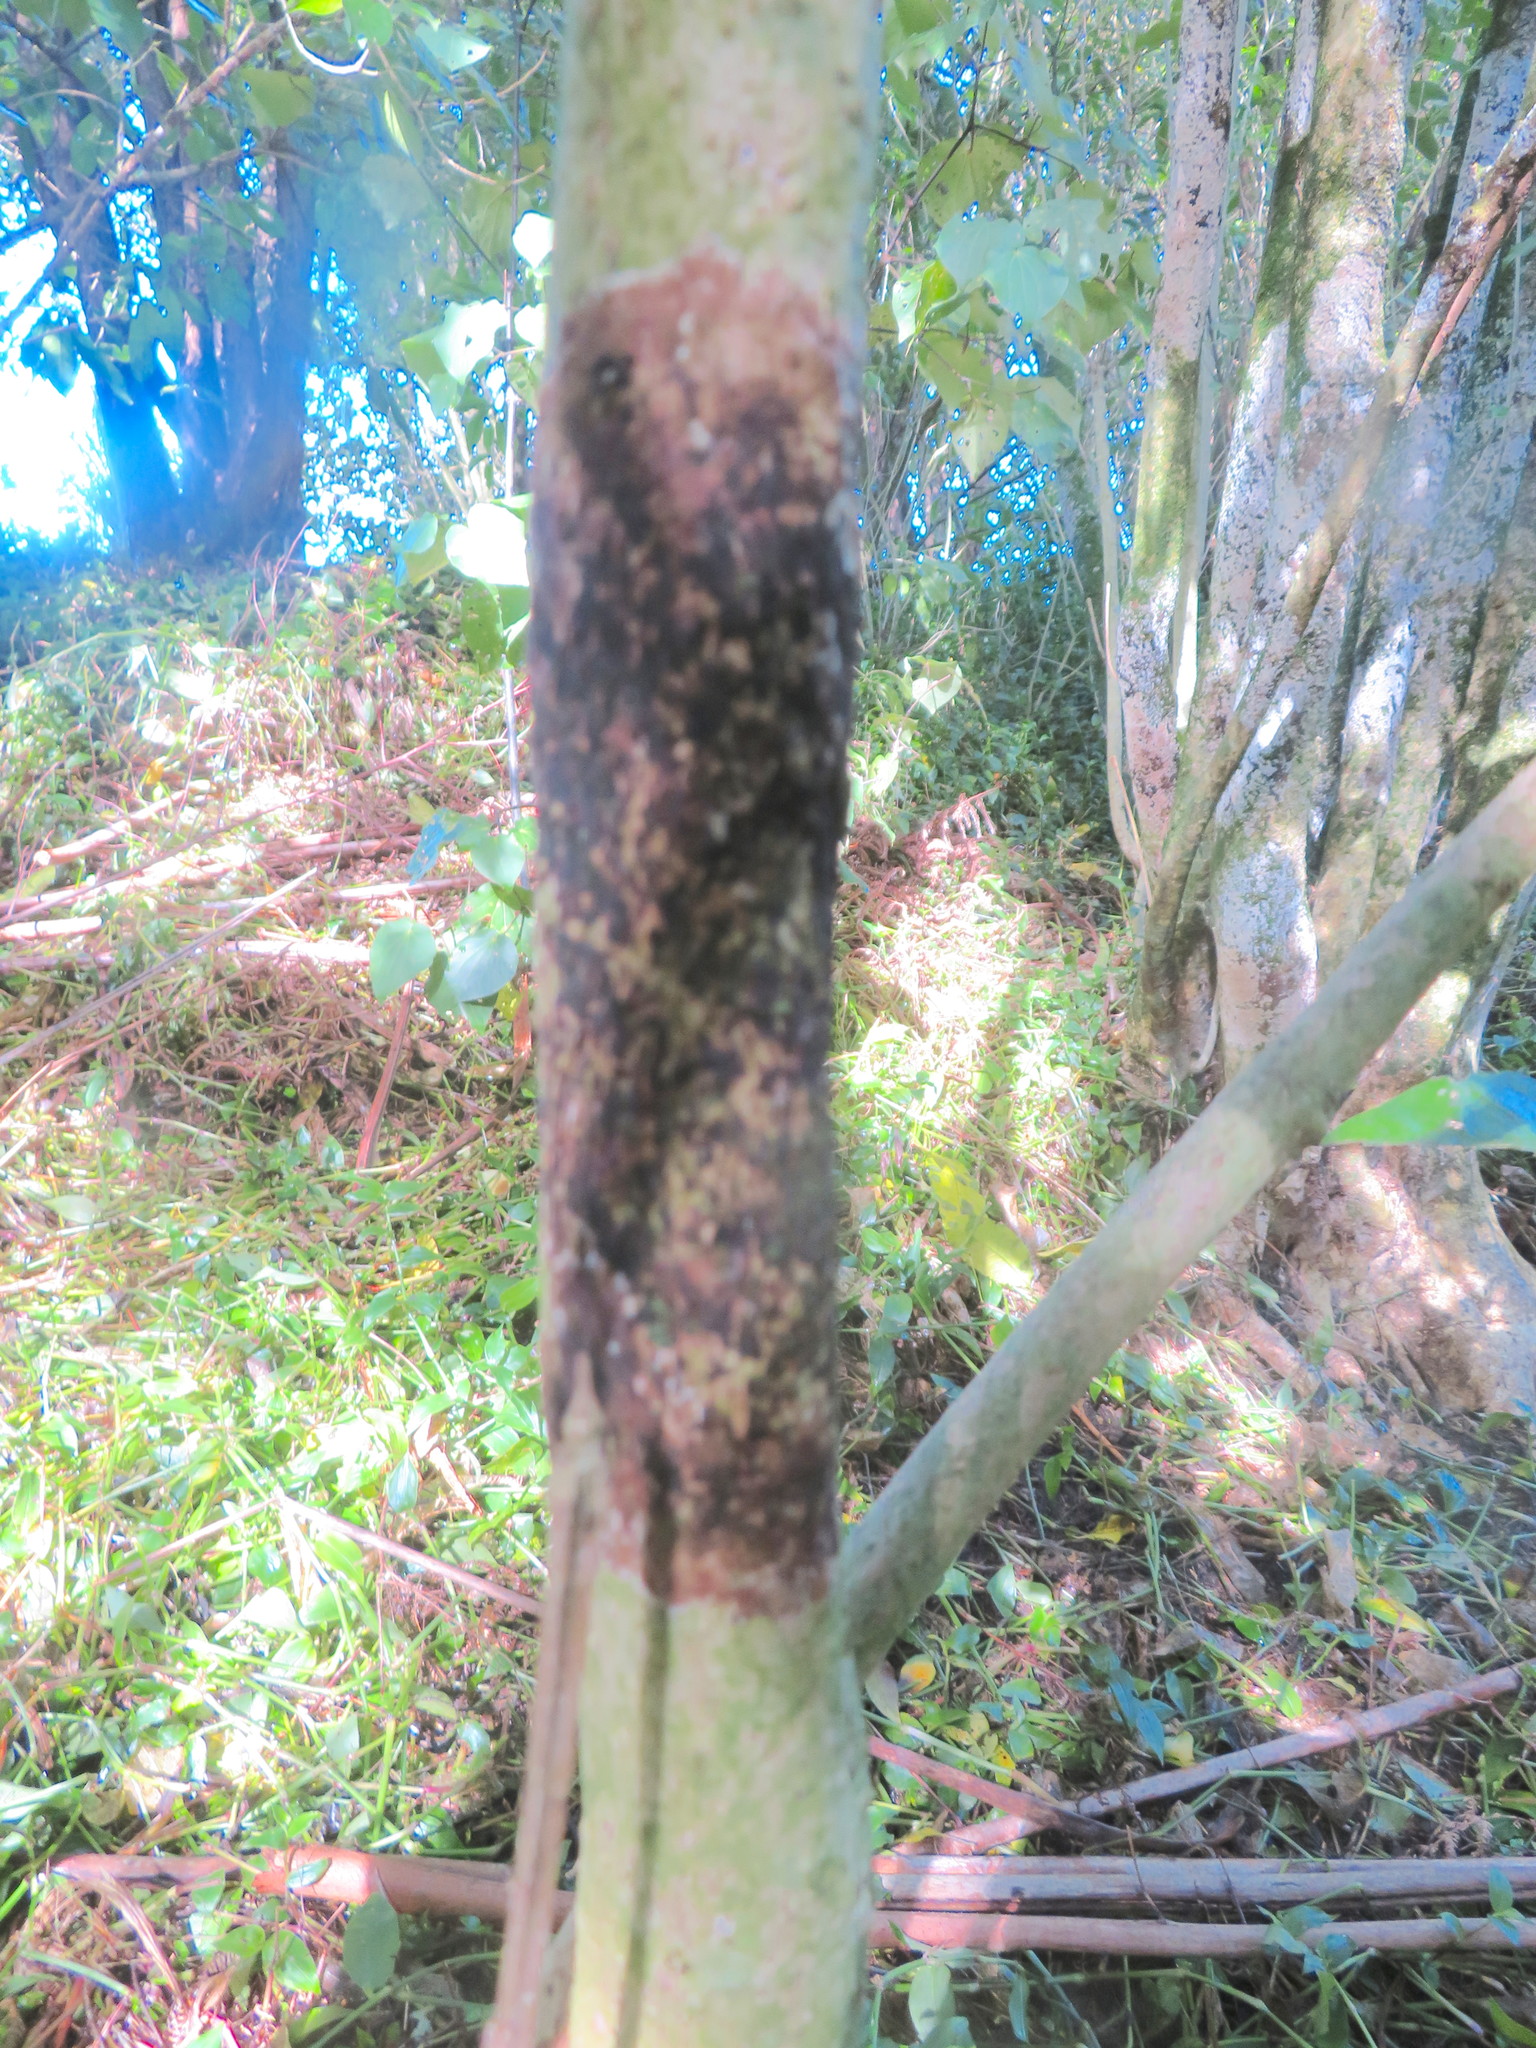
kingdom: Plantae
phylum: Tracheophyta
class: Magnoliopsida
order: Lamiales
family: Lamiaceae
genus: Vitex
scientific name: Vitex lucens
